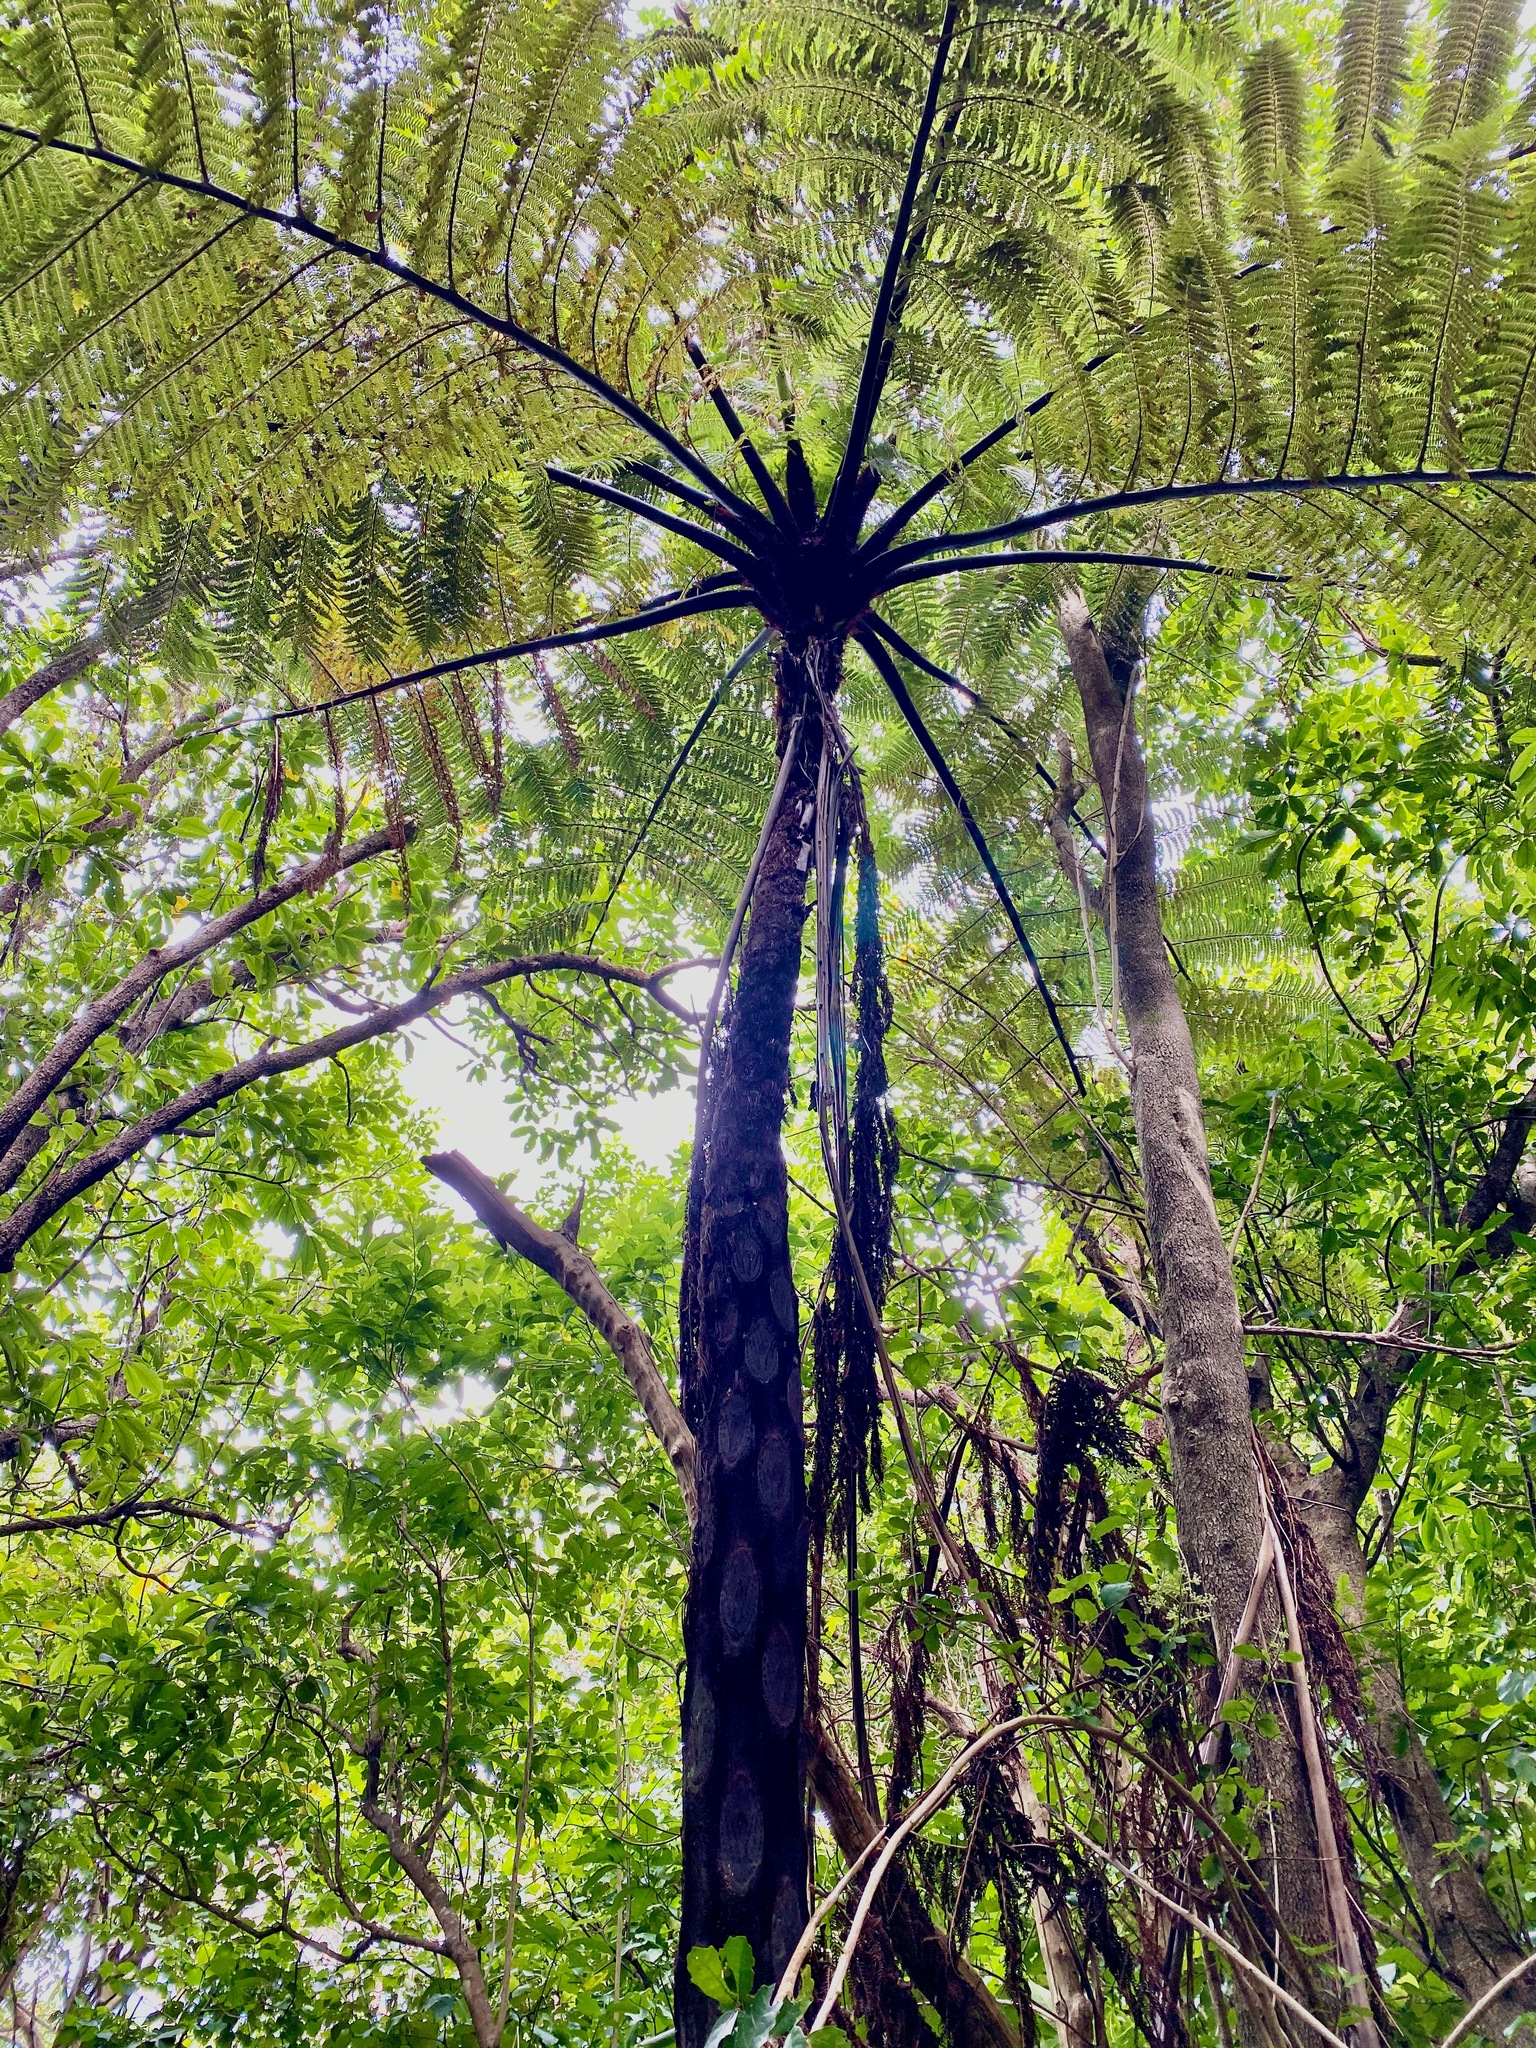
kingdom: Plantae
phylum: Tracheophyta
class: Polypodiopsida
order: Cyatheales
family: Cyatheaceae
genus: Sphaeropteris
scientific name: Sphaeropteris medullaris
